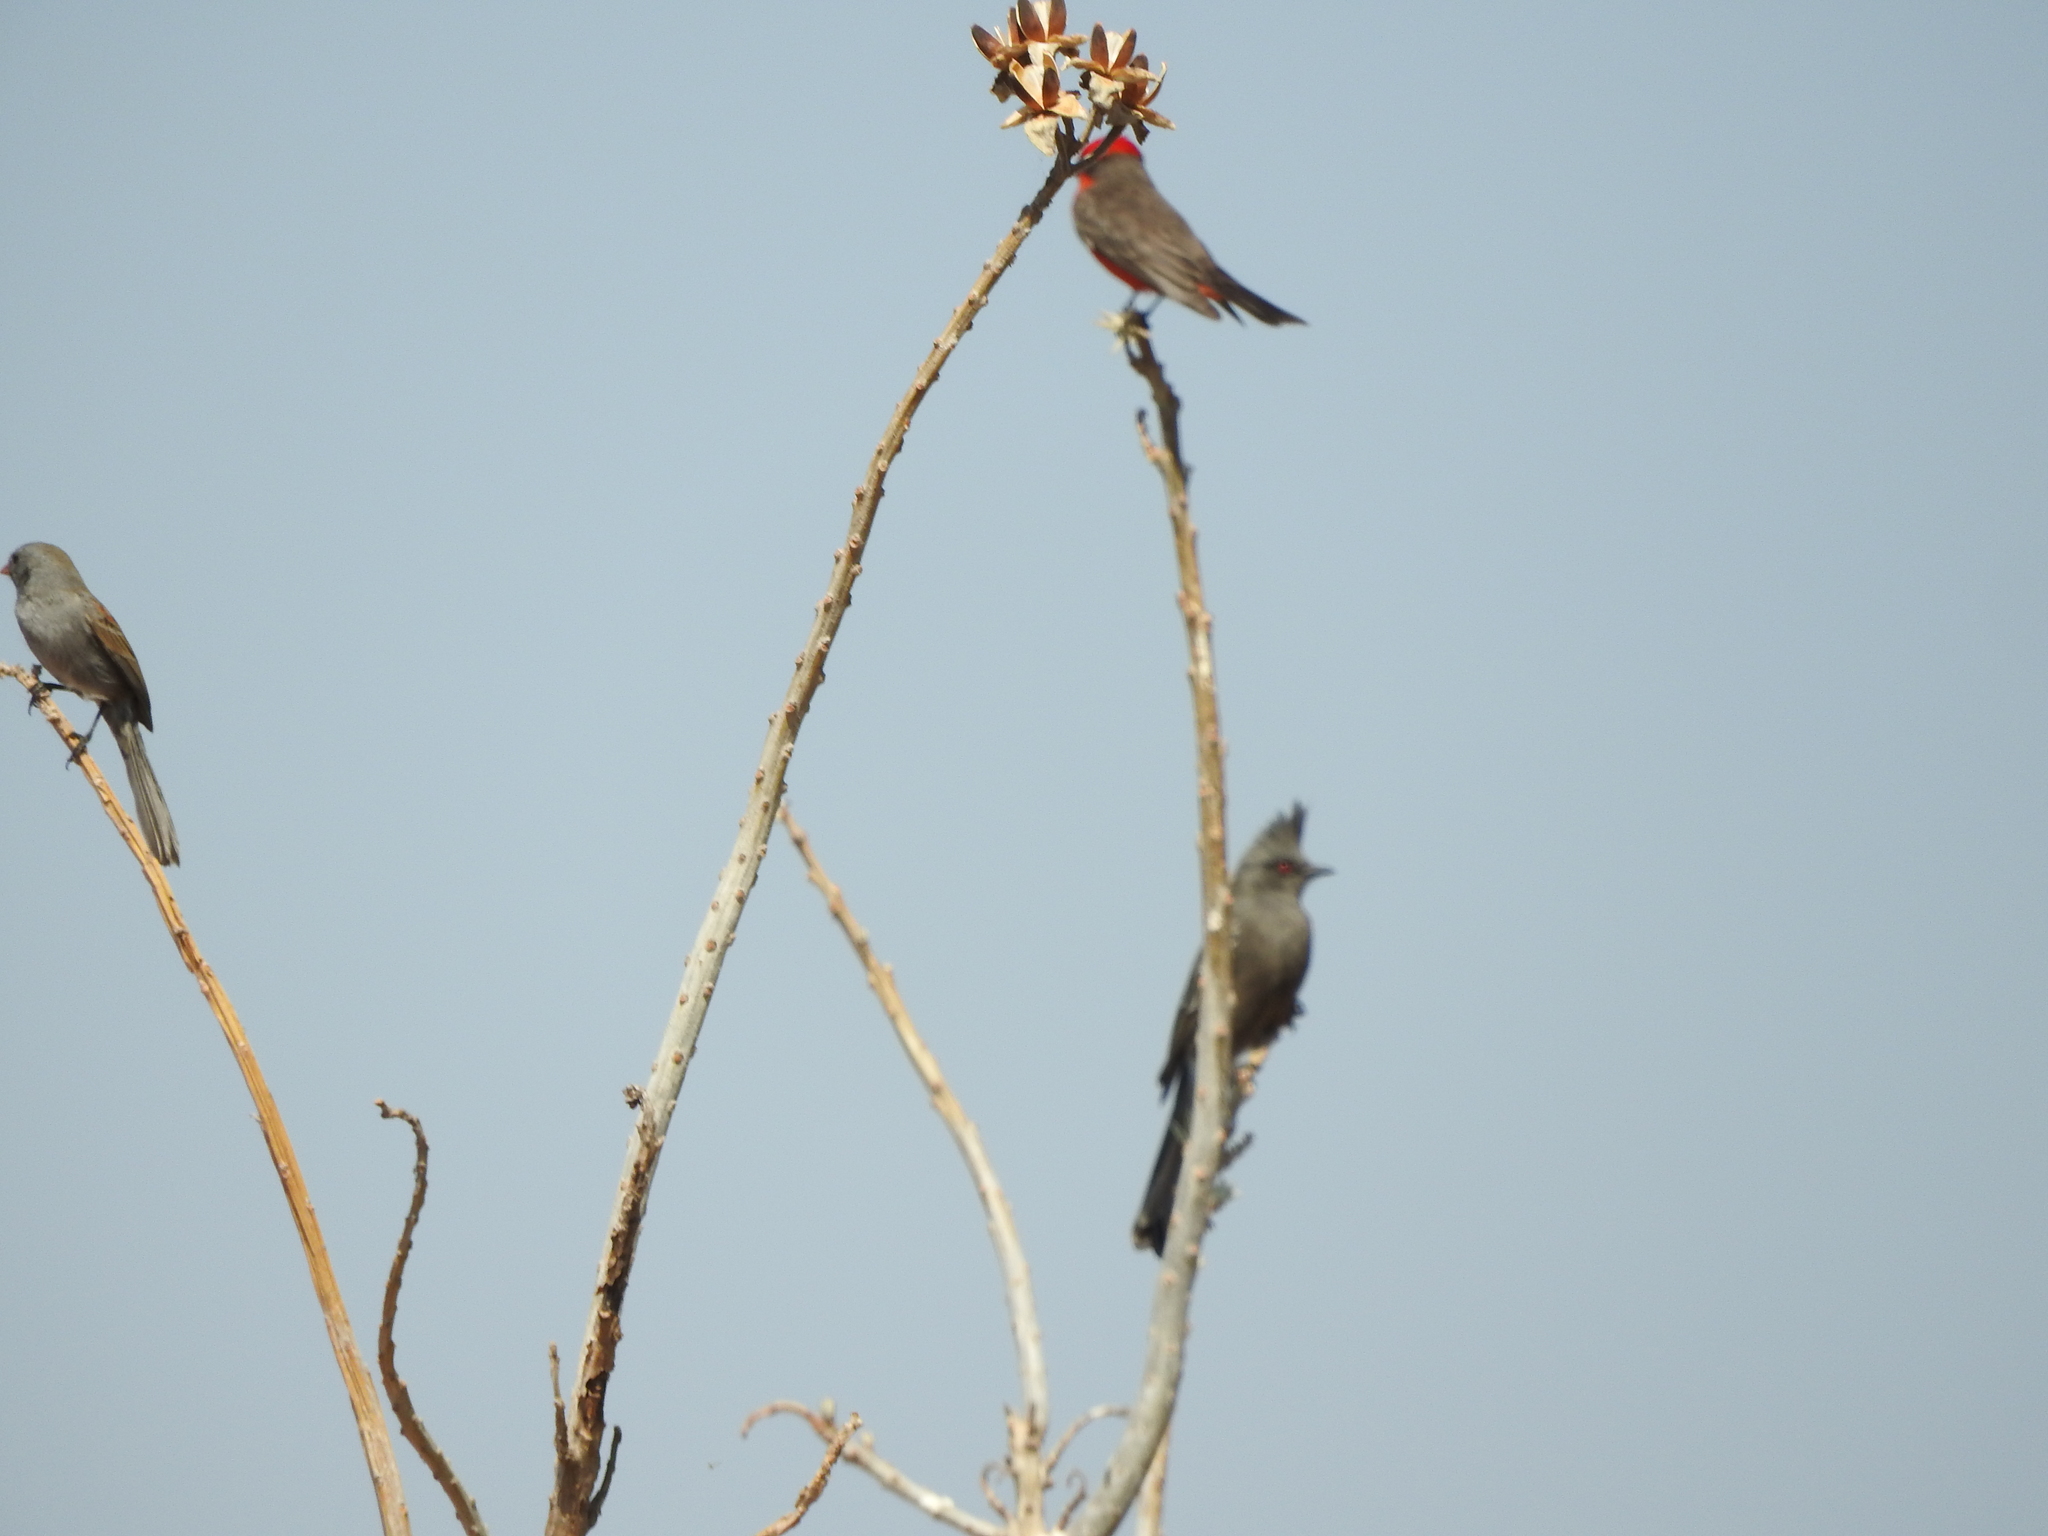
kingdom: Animalia
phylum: Chordata
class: Aves
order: Passeriformes
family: Passerellidae
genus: Spizella
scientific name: Spizella atrogularis
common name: Black-chinned sparrow
